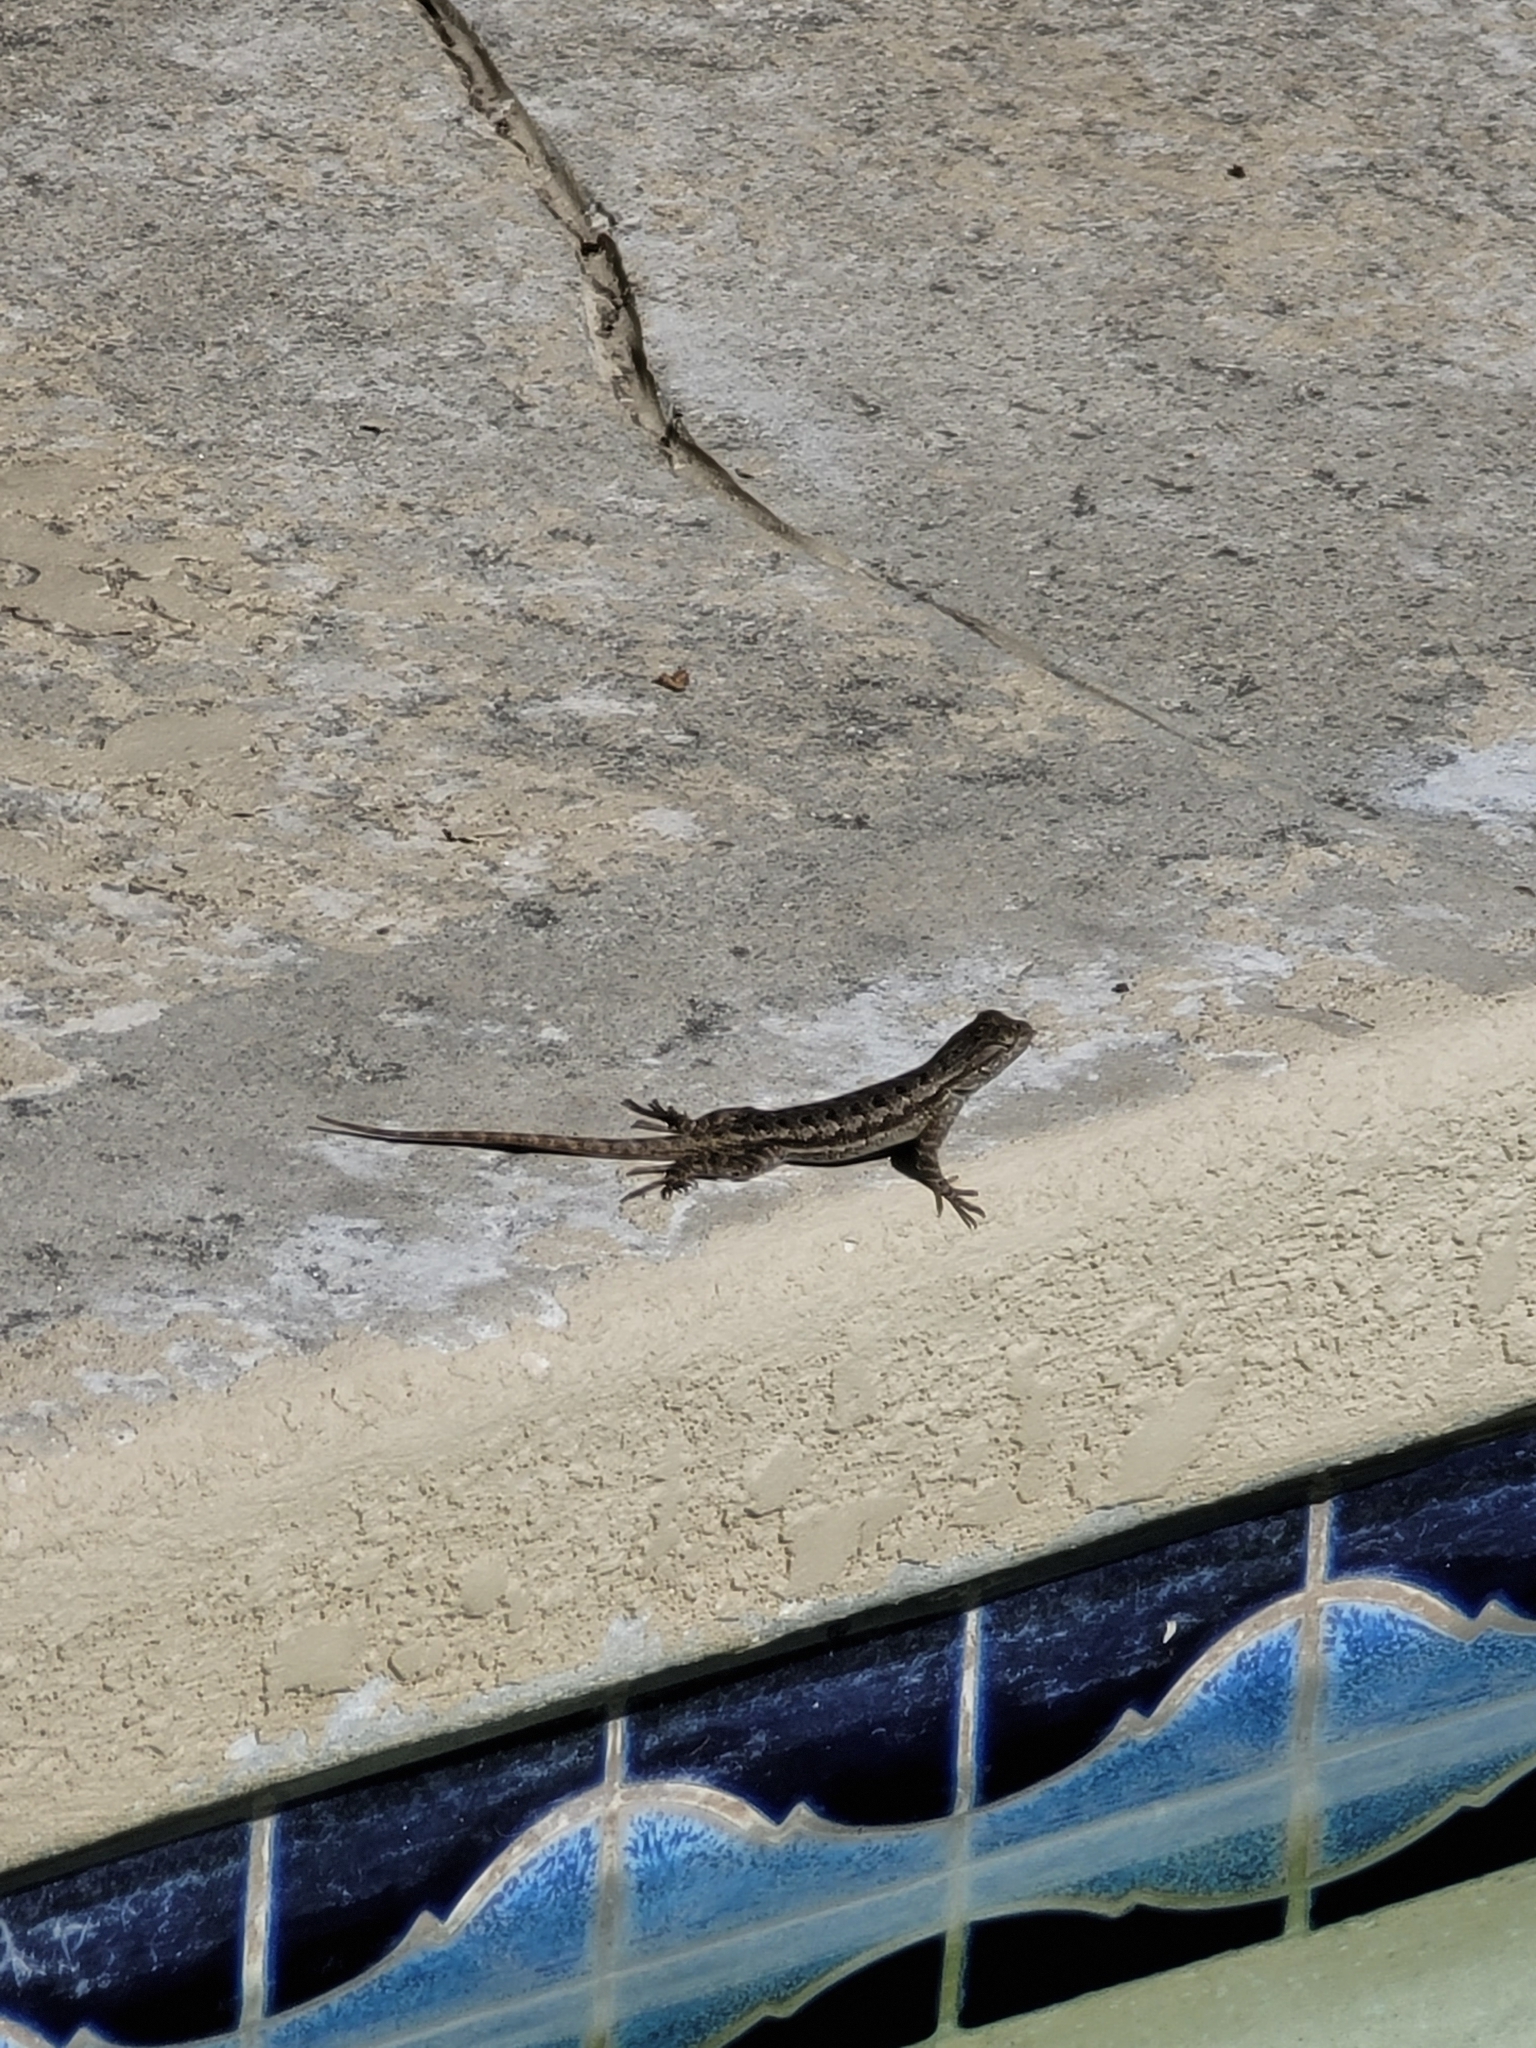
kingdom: Animalia
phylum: Chordata
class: Squamata
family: Phrynosomatidae
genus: Sceloporus
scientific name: Sceloporus occidentalis
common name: Western fence lizard
